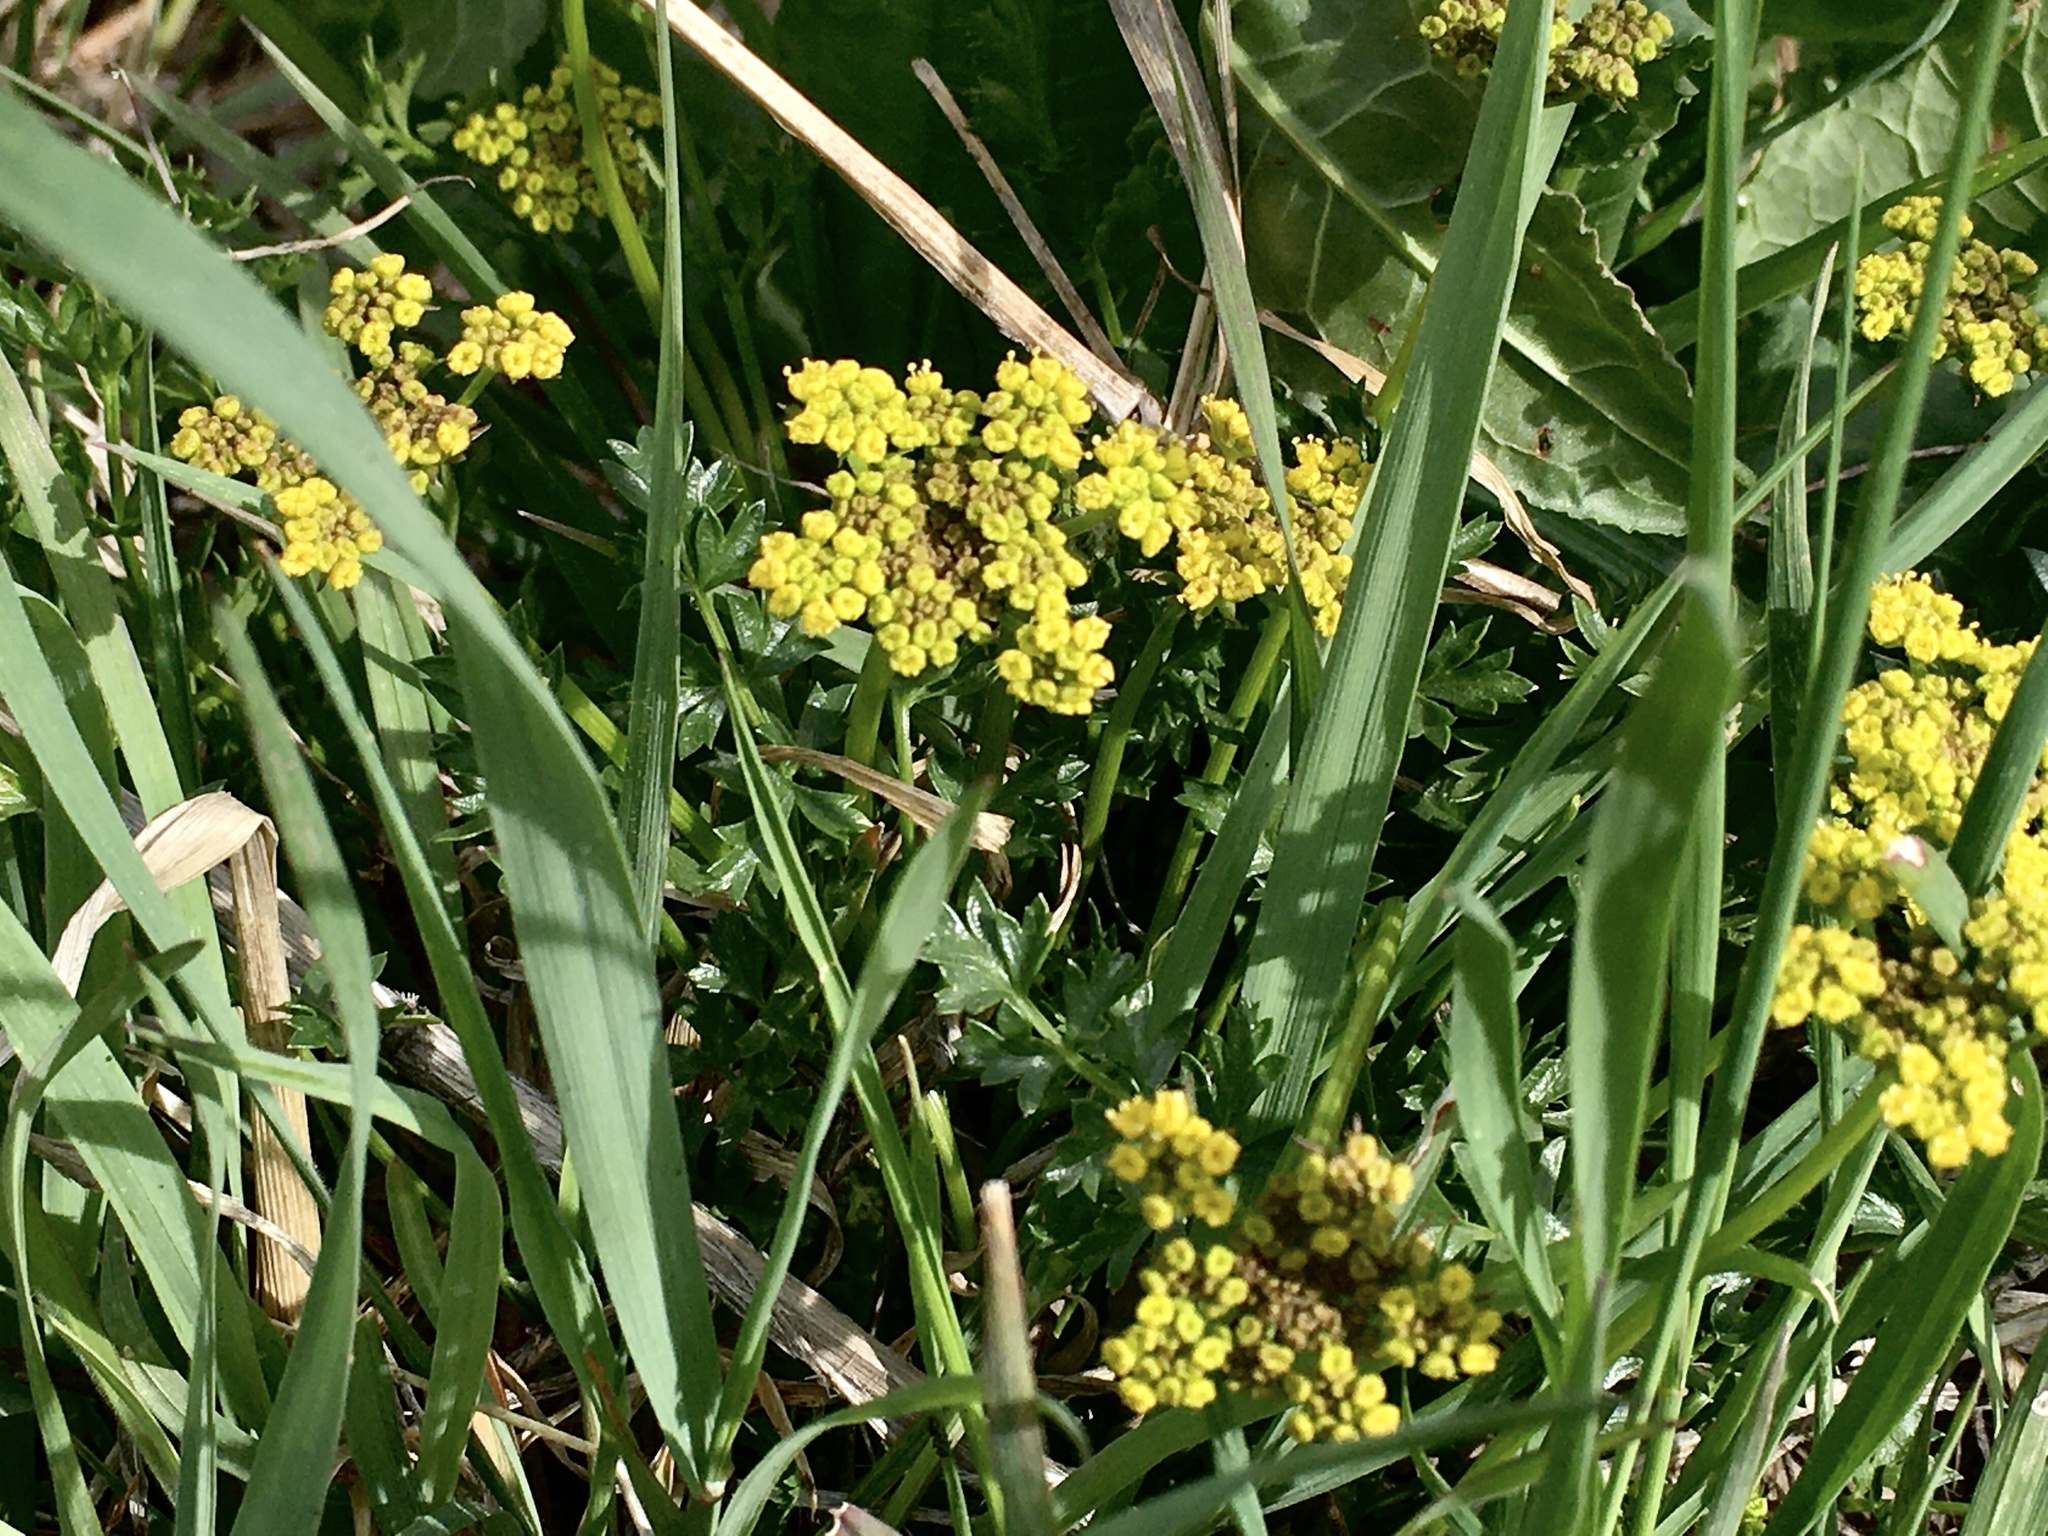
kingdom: Plantae
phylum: Tracheophyta
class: Magnoliopsida
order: Apiales
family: Apiaceae
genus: Musineon
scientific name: Musineon divaricatum
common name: Plains musineon
